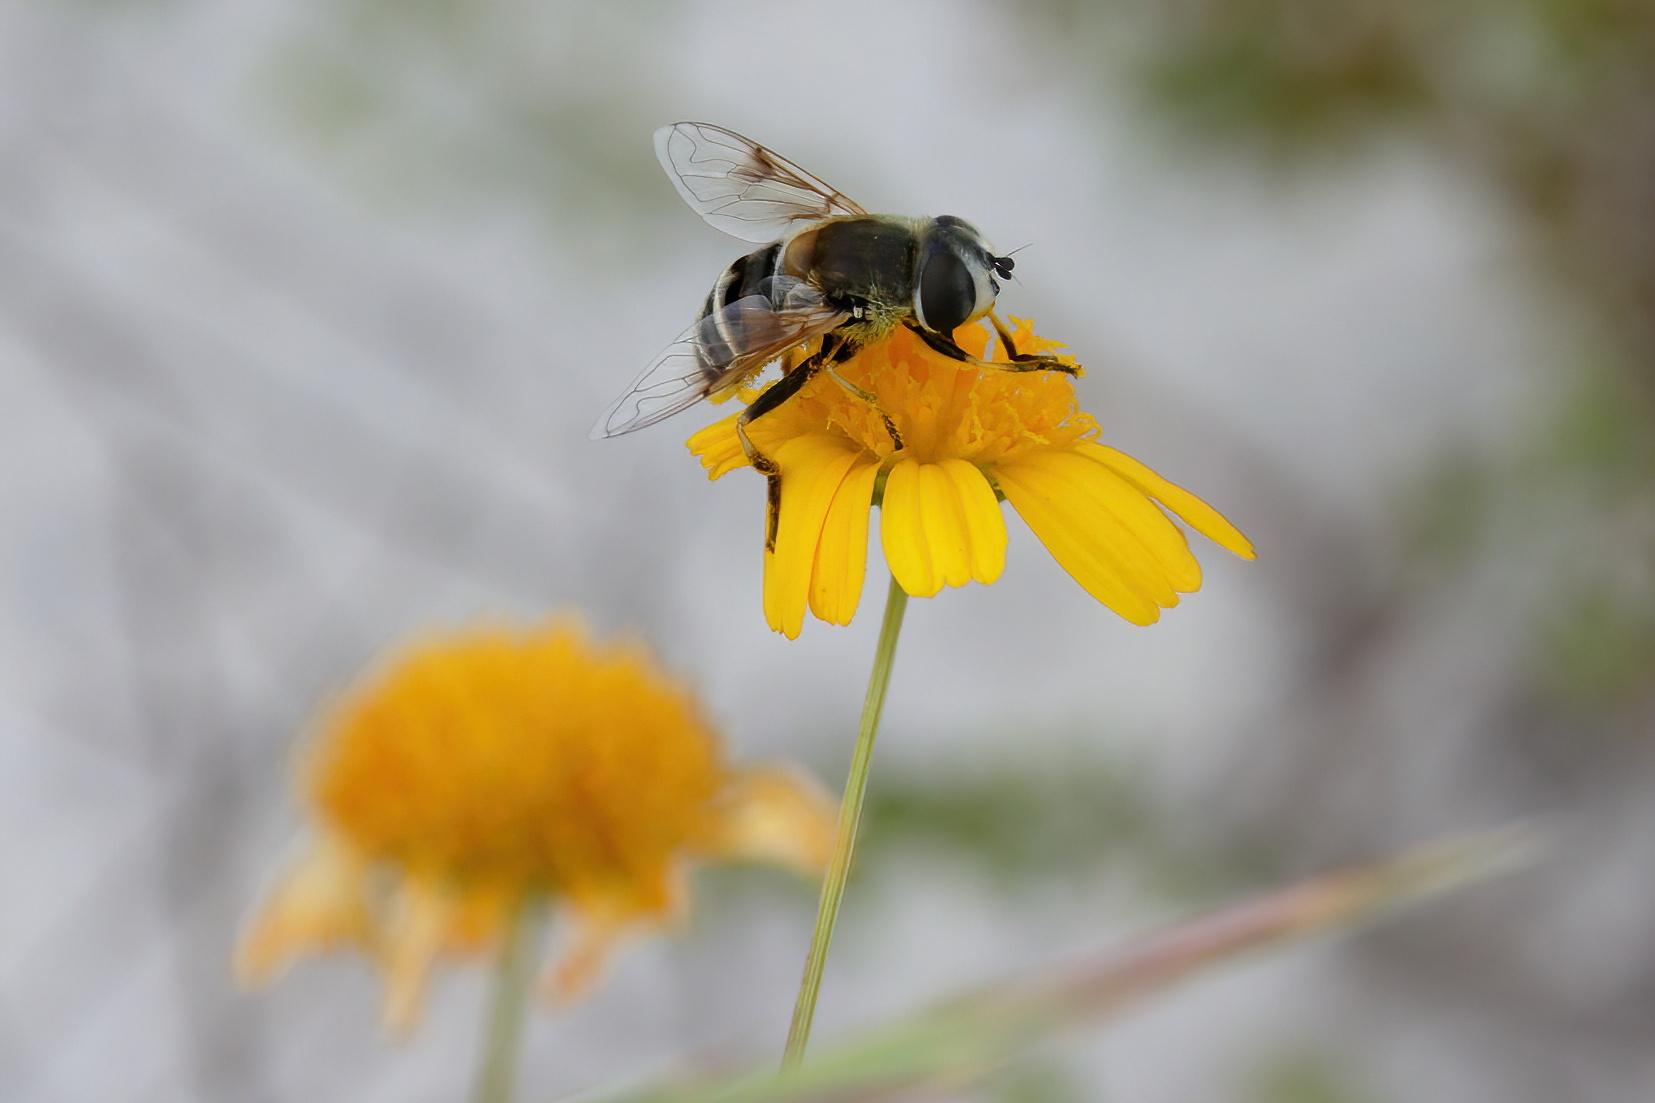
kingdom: Animalia
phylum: Arthropoda
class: Insecta
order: Diptera
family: Syrphidae
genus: Eristalis
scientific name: Eristalis stipator
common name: Yellow-shouldered drone fly
